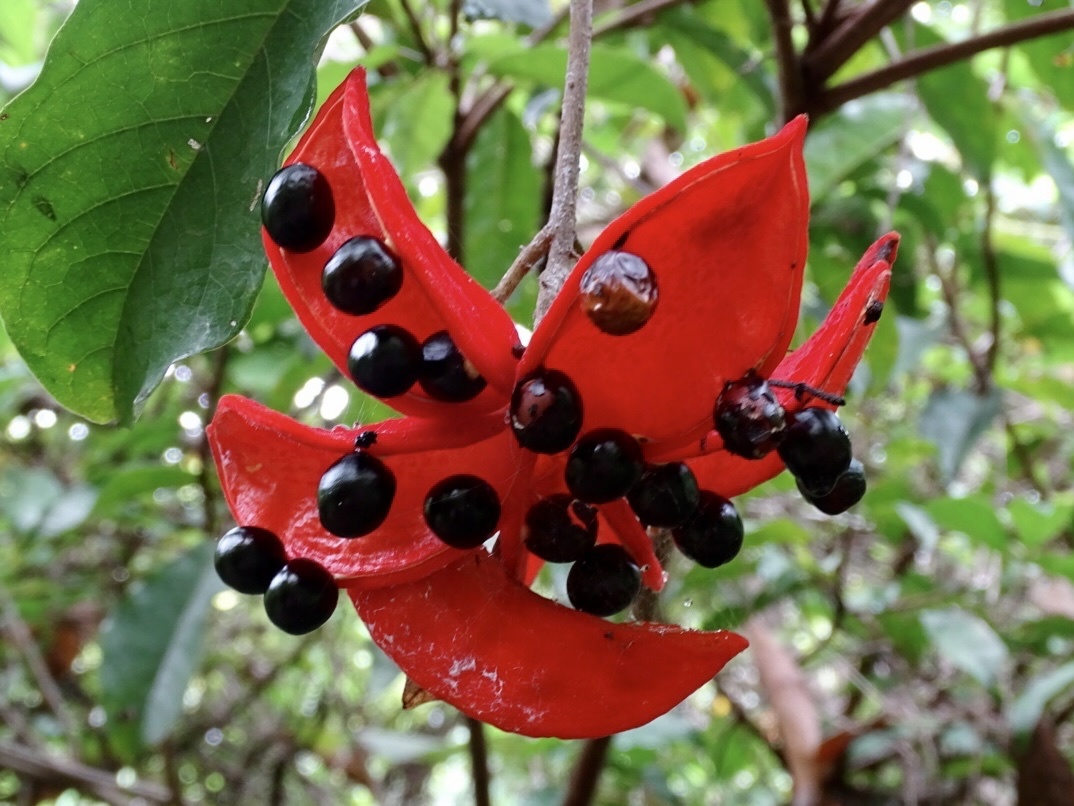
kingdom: Plantae
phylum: Tracheophyta
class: Magnoliopsida
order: Malvales
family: Malvaceae
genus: Sterculia
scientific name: Sterculia lanceolata
